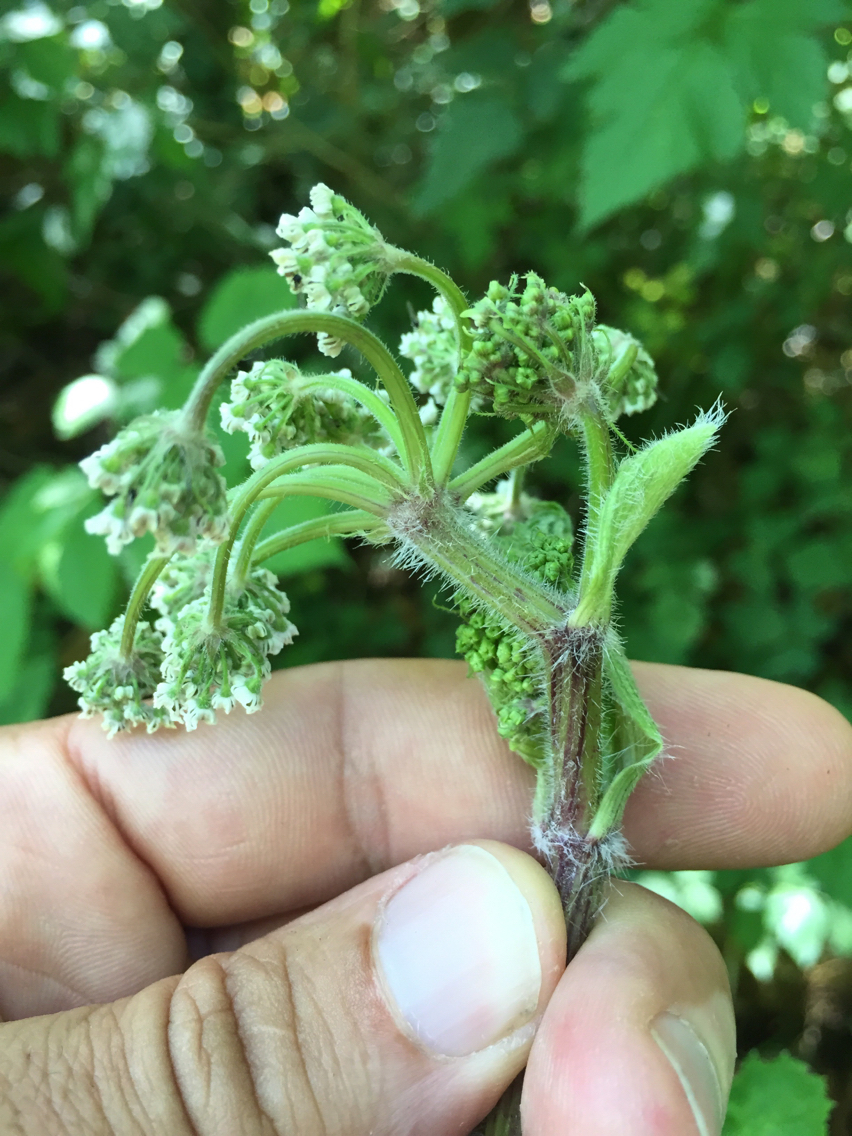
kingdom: Plantae
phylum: Tracheophyta
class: Magnoliopsida
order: Apiales
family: Apiaceae
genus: Heracleum
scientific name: Heracleum maximum
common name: American cow parsnip
